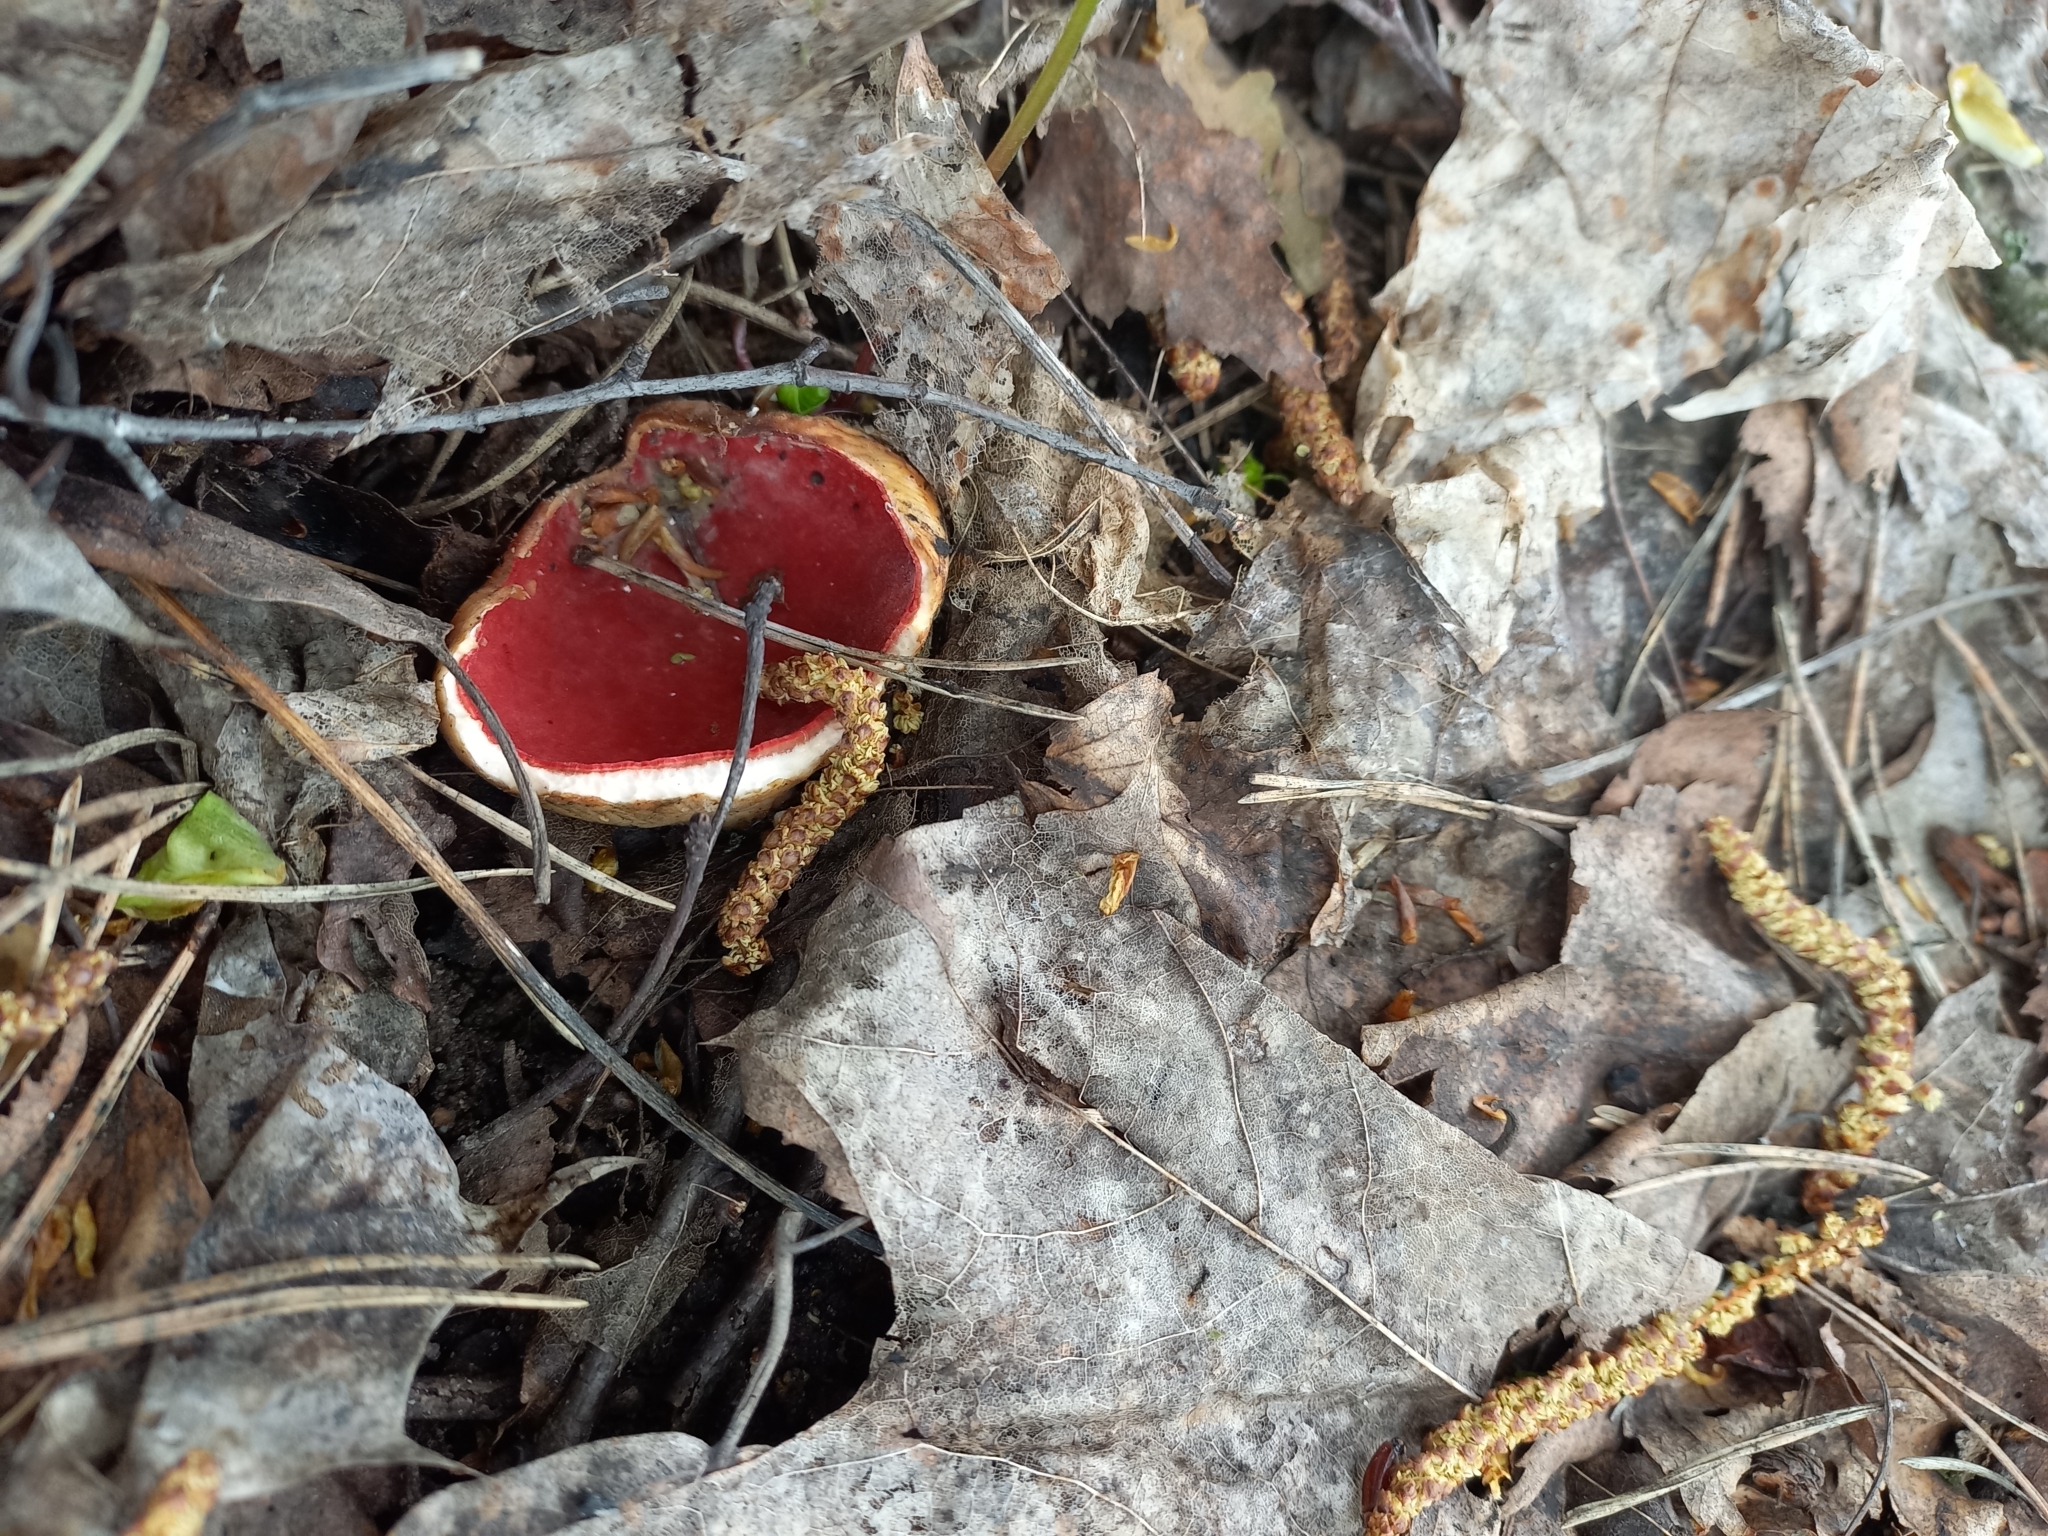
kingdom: Fungi
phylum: Ascomycota
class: Pezizomycetes
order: Pezizales
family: Sarcoscyphaceae
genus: Sarcoscypha
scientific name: Sarcoscypha austriaca
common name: Scarlet elfcup
